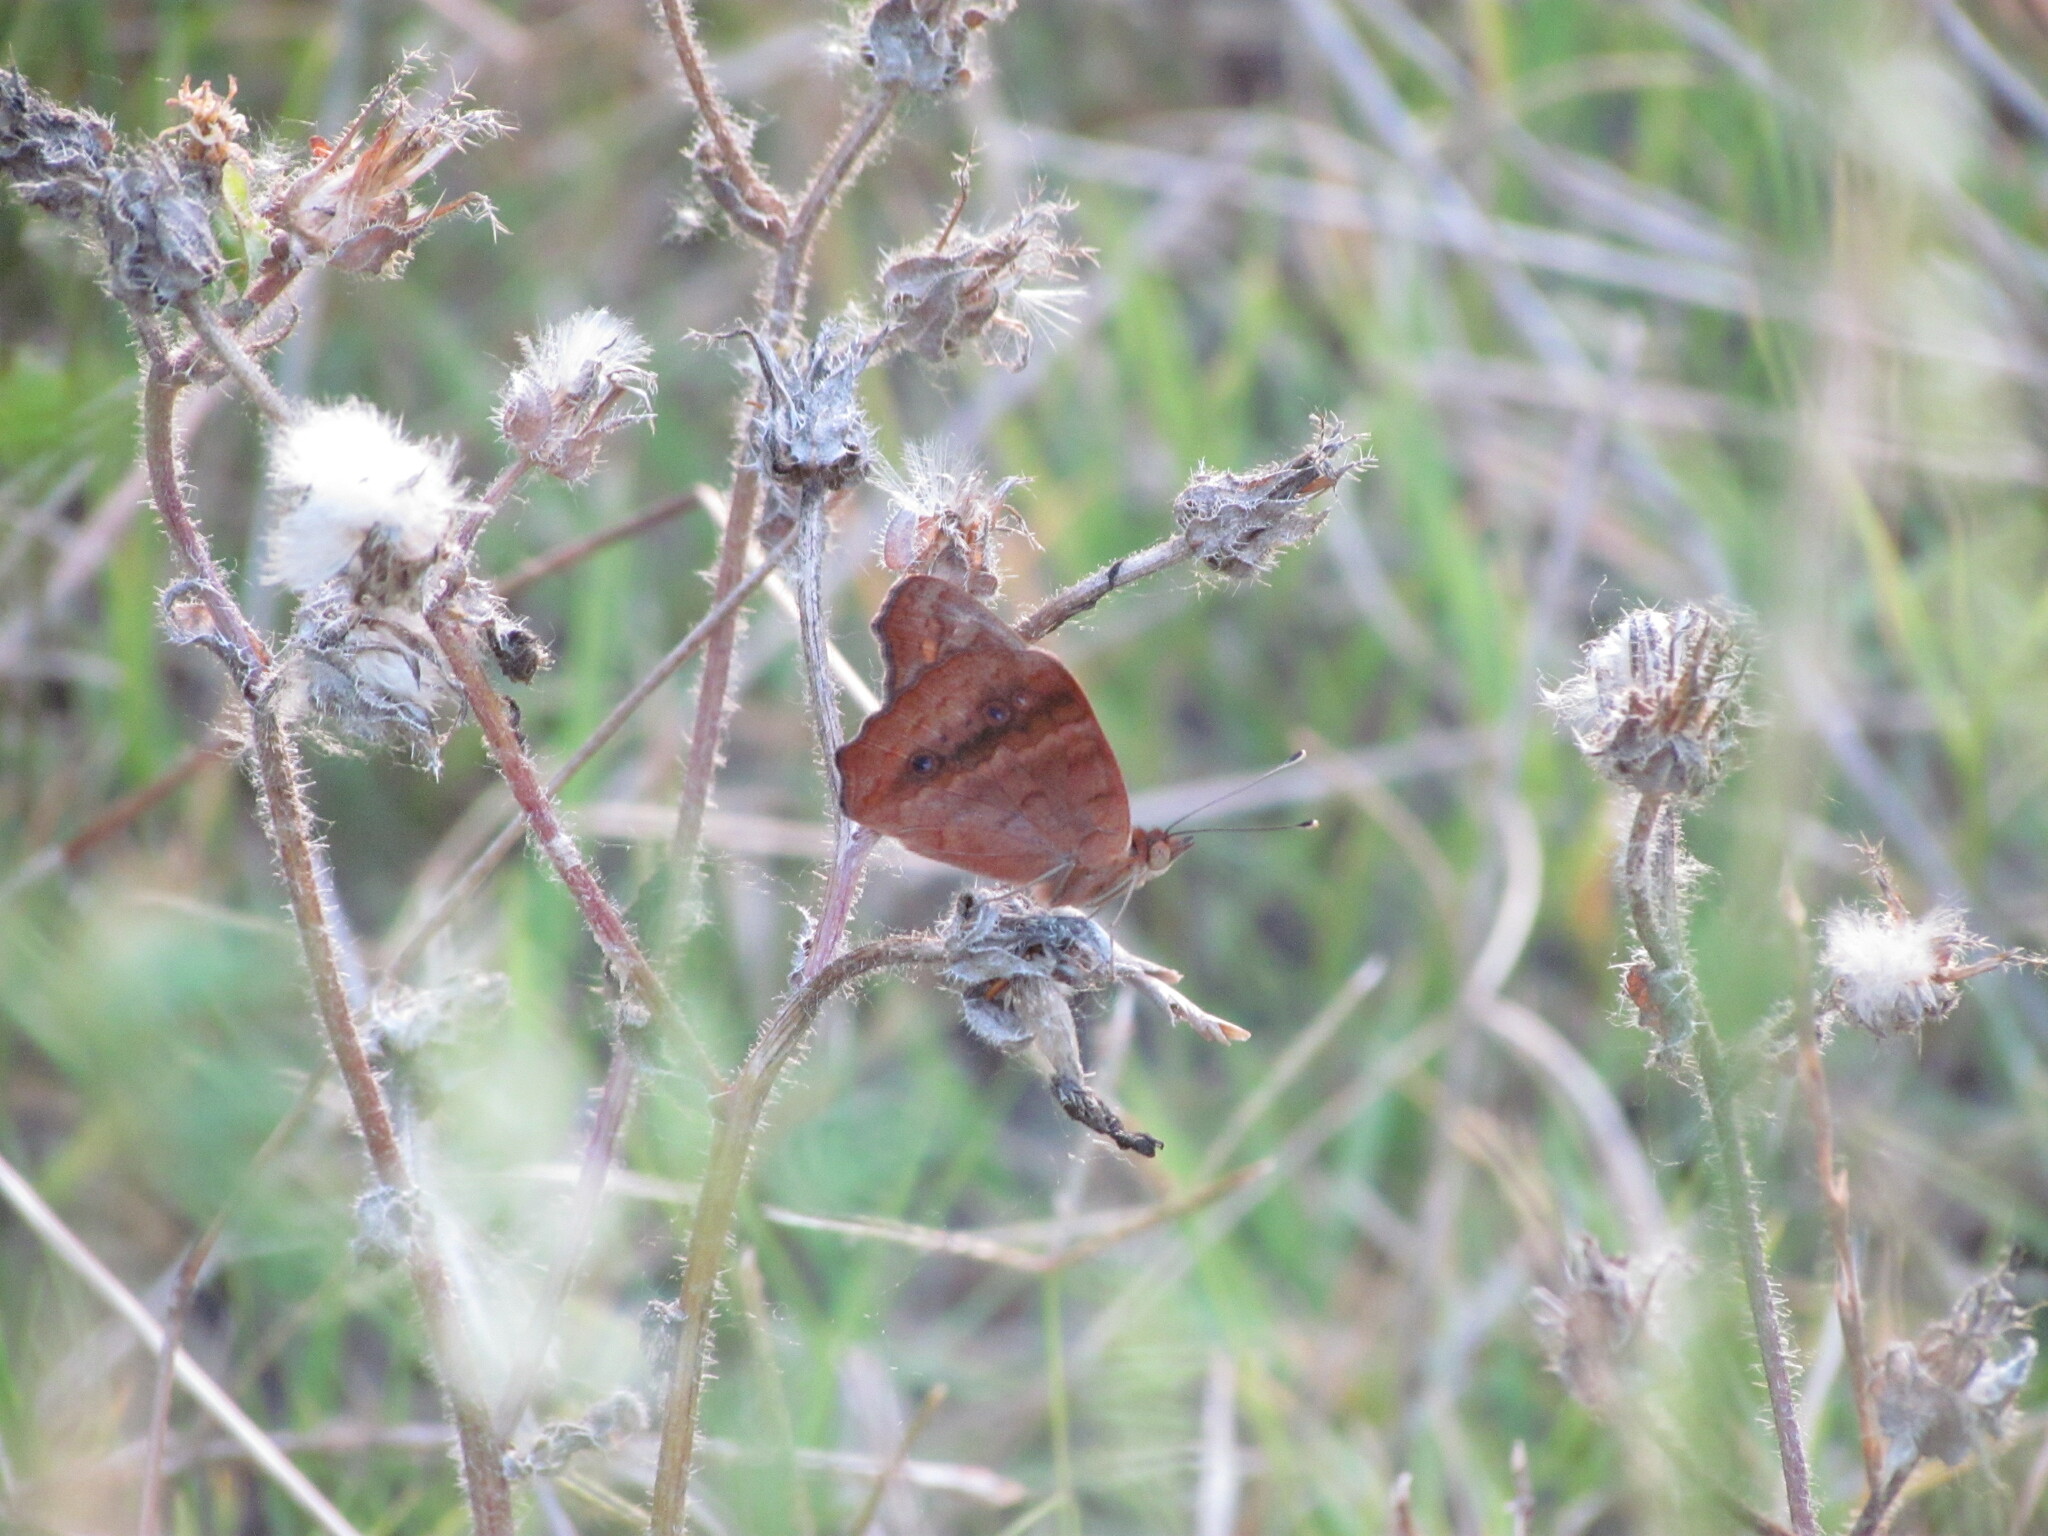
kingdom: Animalia
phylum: Arthropoda
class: Insecta
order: Lepidoptera
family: Nymphalidae
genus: Junonia
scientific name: Junonia lavinia
